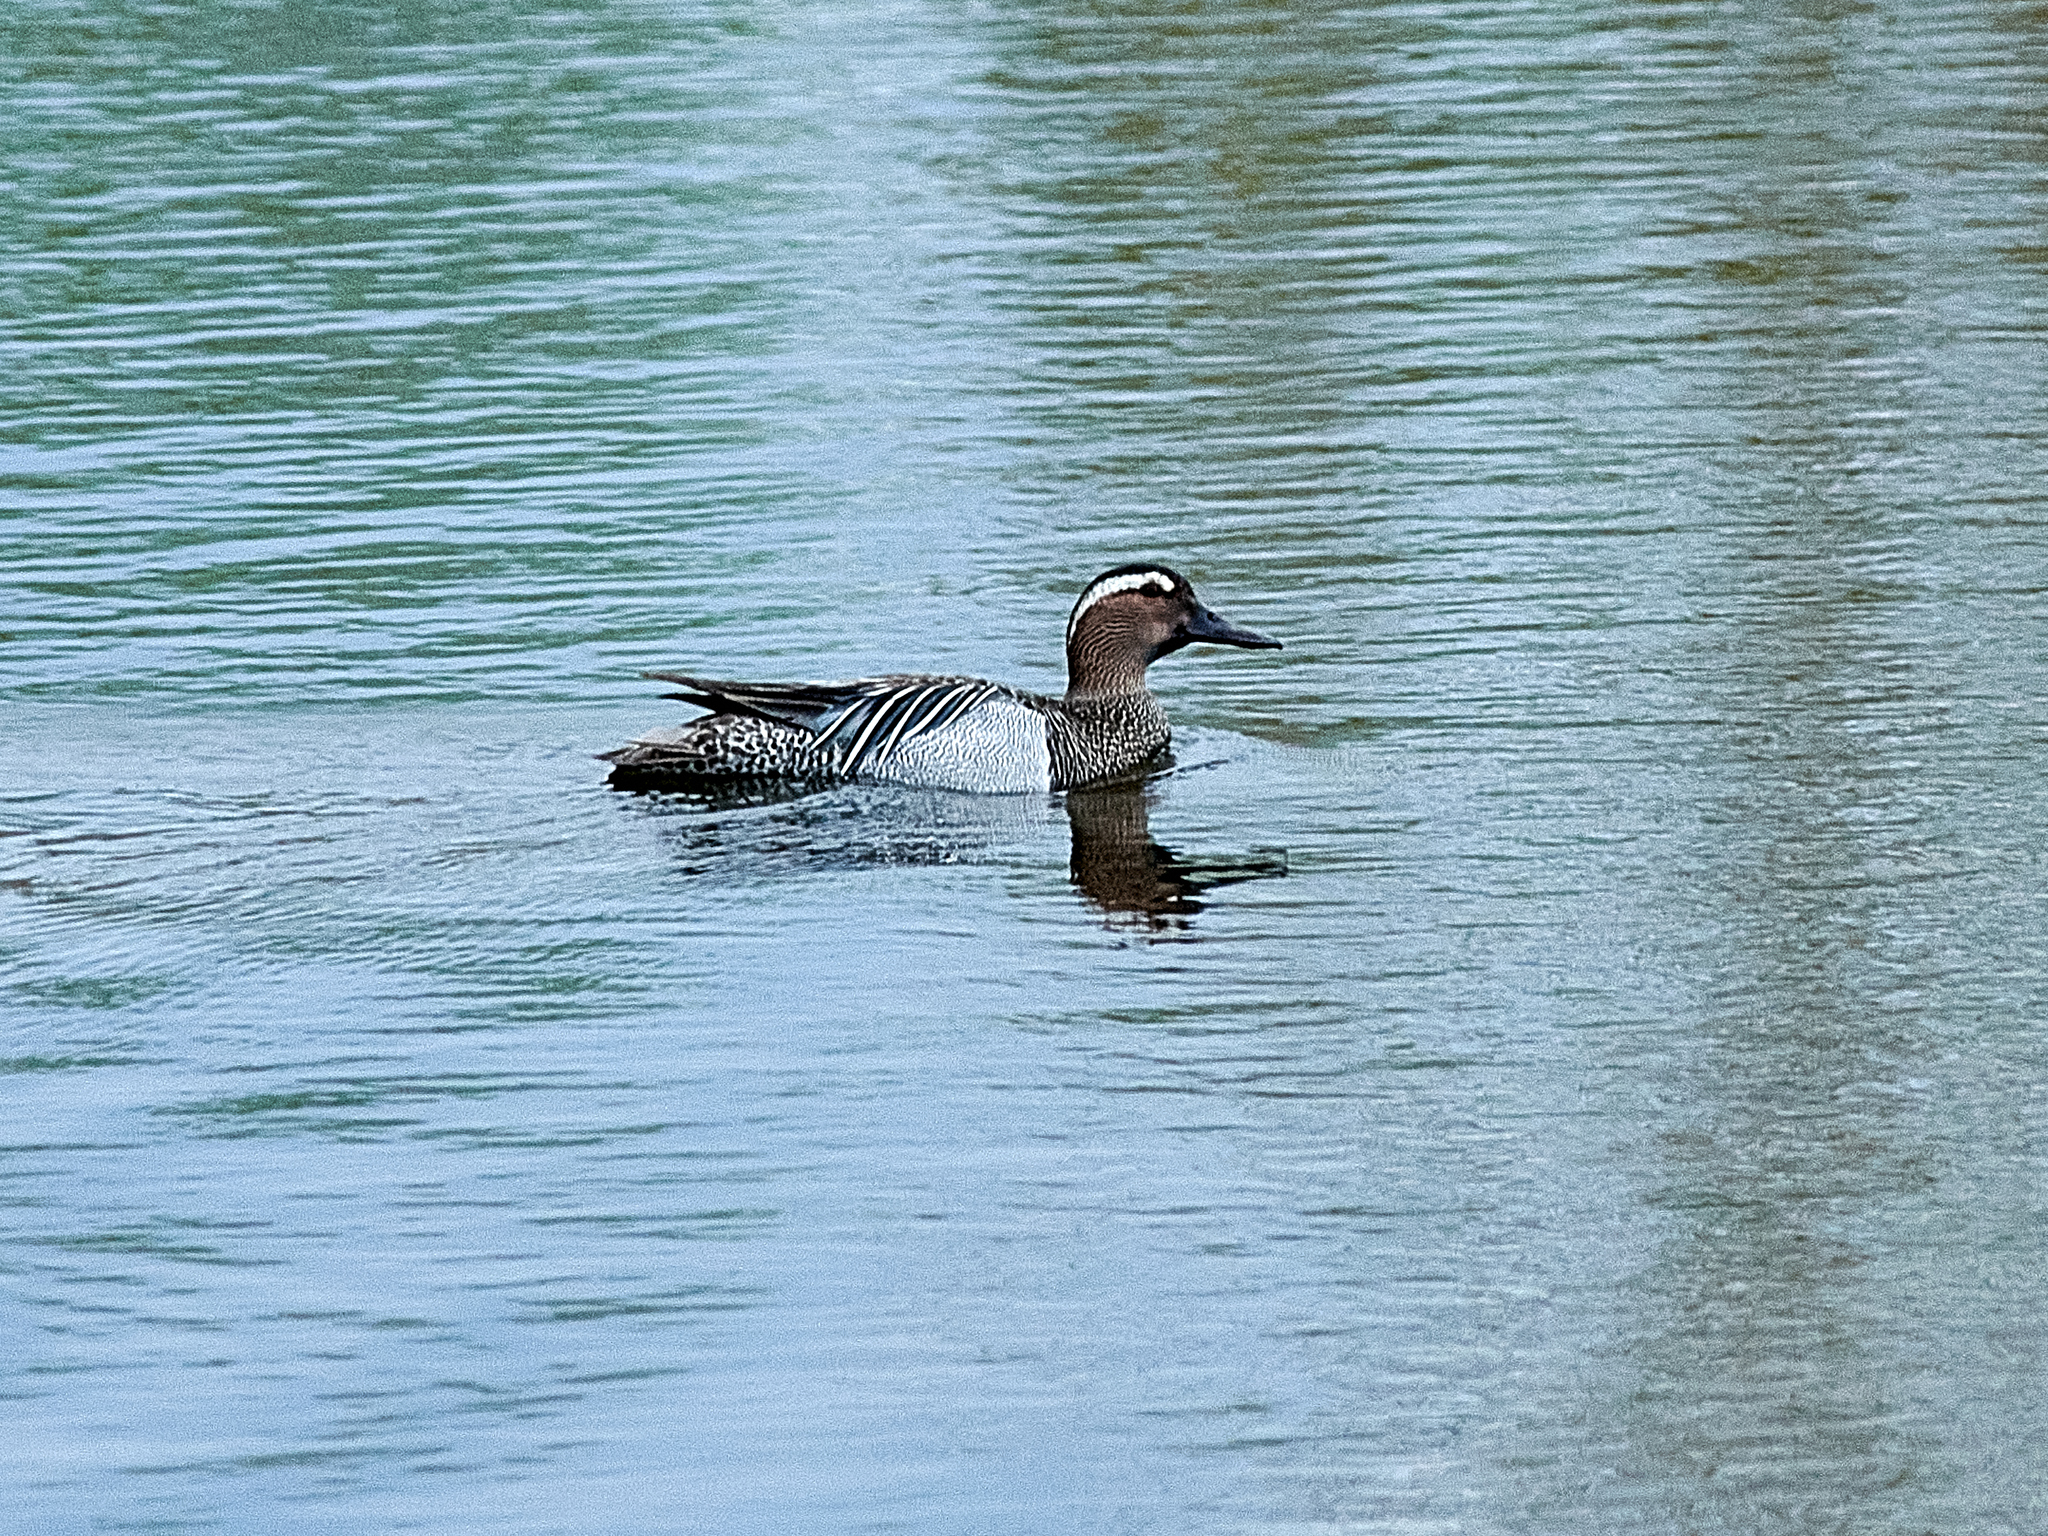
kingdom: Animalia
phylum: Chordata
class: Aves
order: Anseriformes
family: Anatidae
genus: Spatula
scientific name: Spatula querquedula
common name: Garganey
